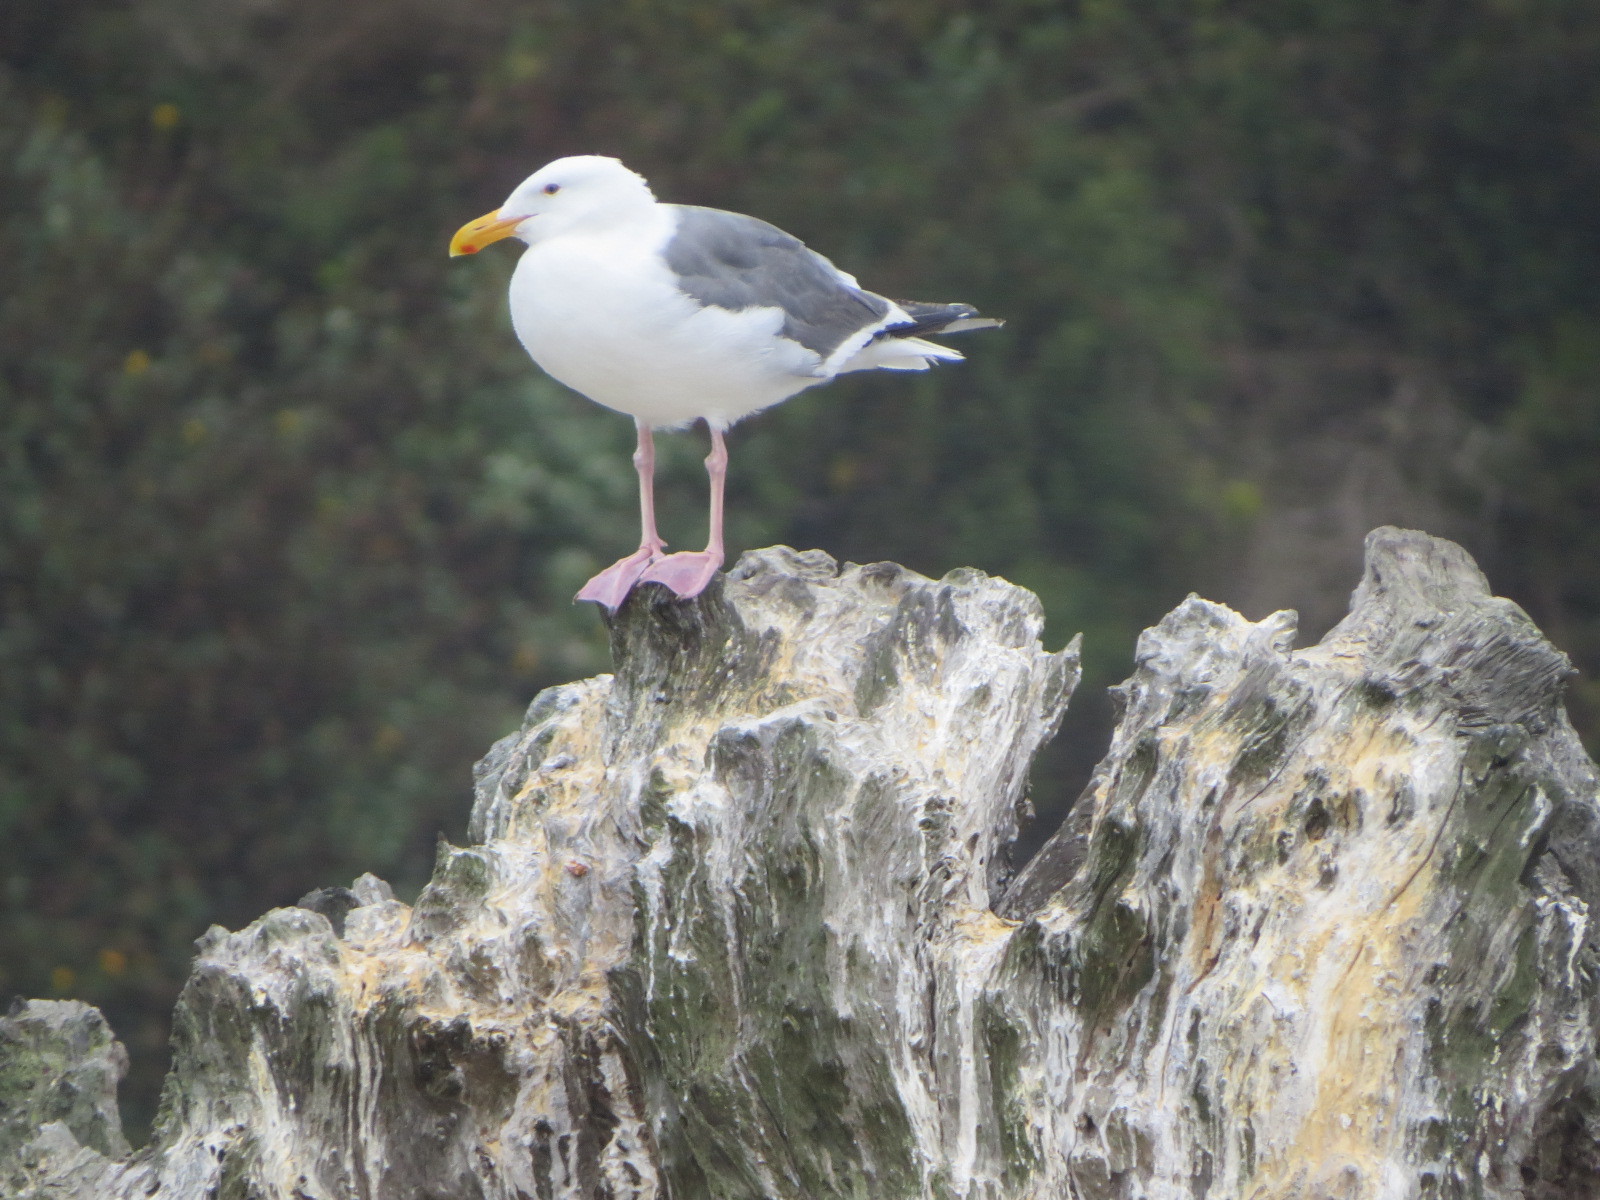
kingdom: Animalia
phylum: Chordata
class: Aves
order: Charadriiformes
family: Laridae
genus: Larus
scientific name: Larus occidentalis
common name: Western gull
